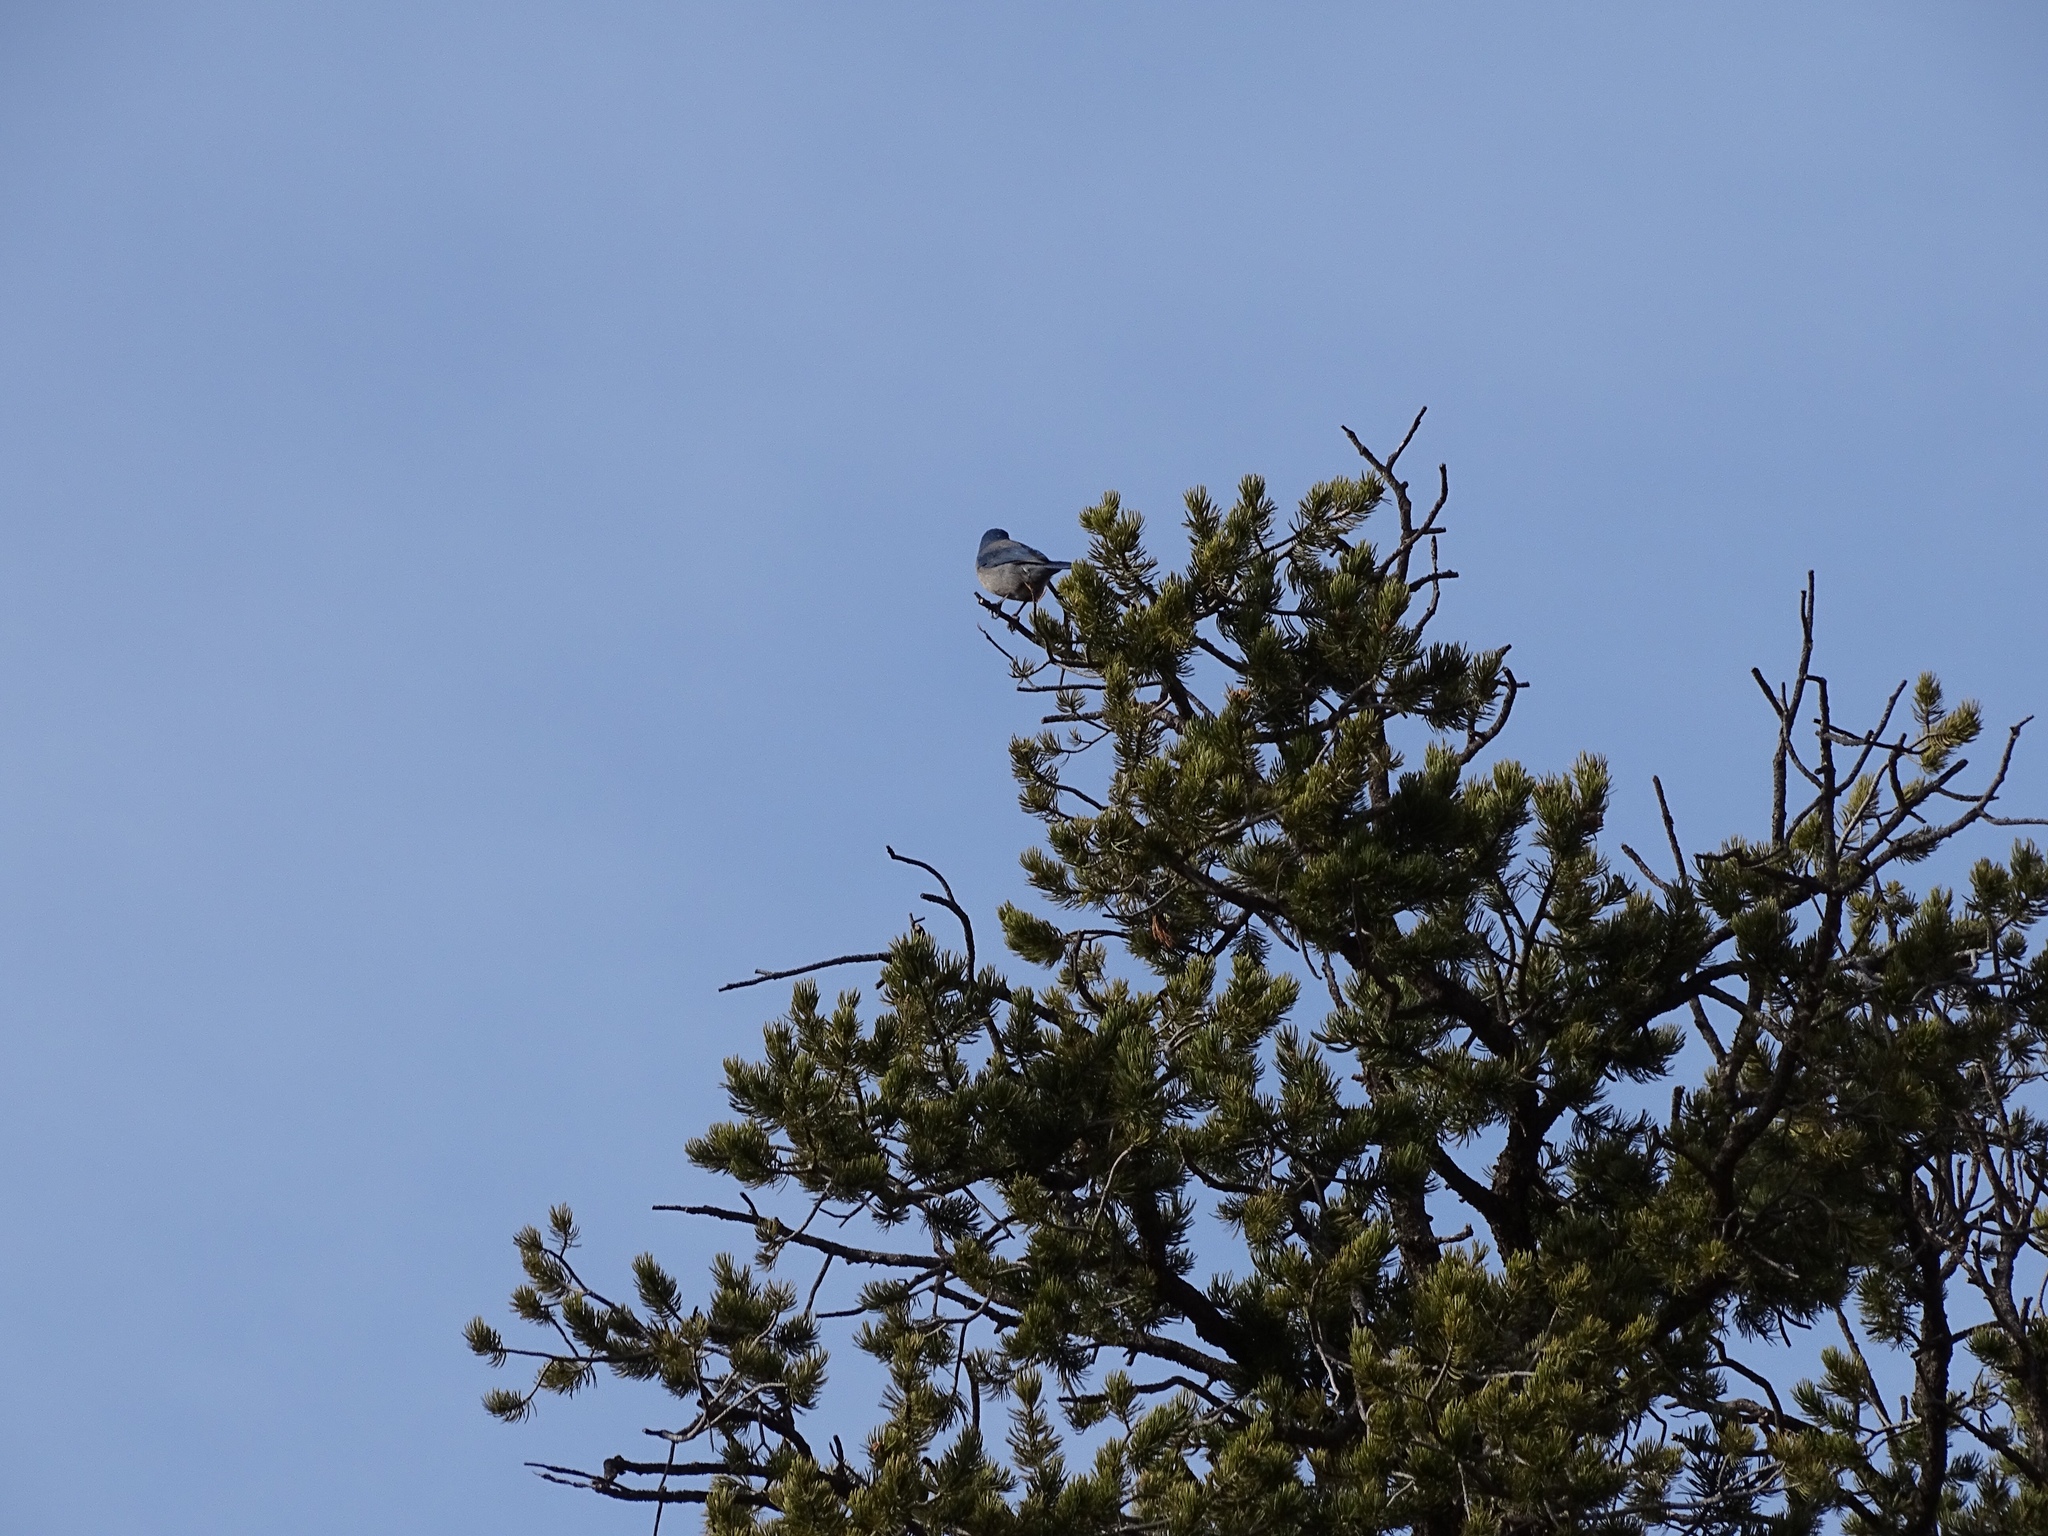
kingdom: Animalia
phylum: Chordata
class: Aves
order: Passeriformes
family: Corvidae
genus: Aphelocoma
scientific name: Aphelocoma woodhouseii
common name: Woodhouse's scrub-jay
